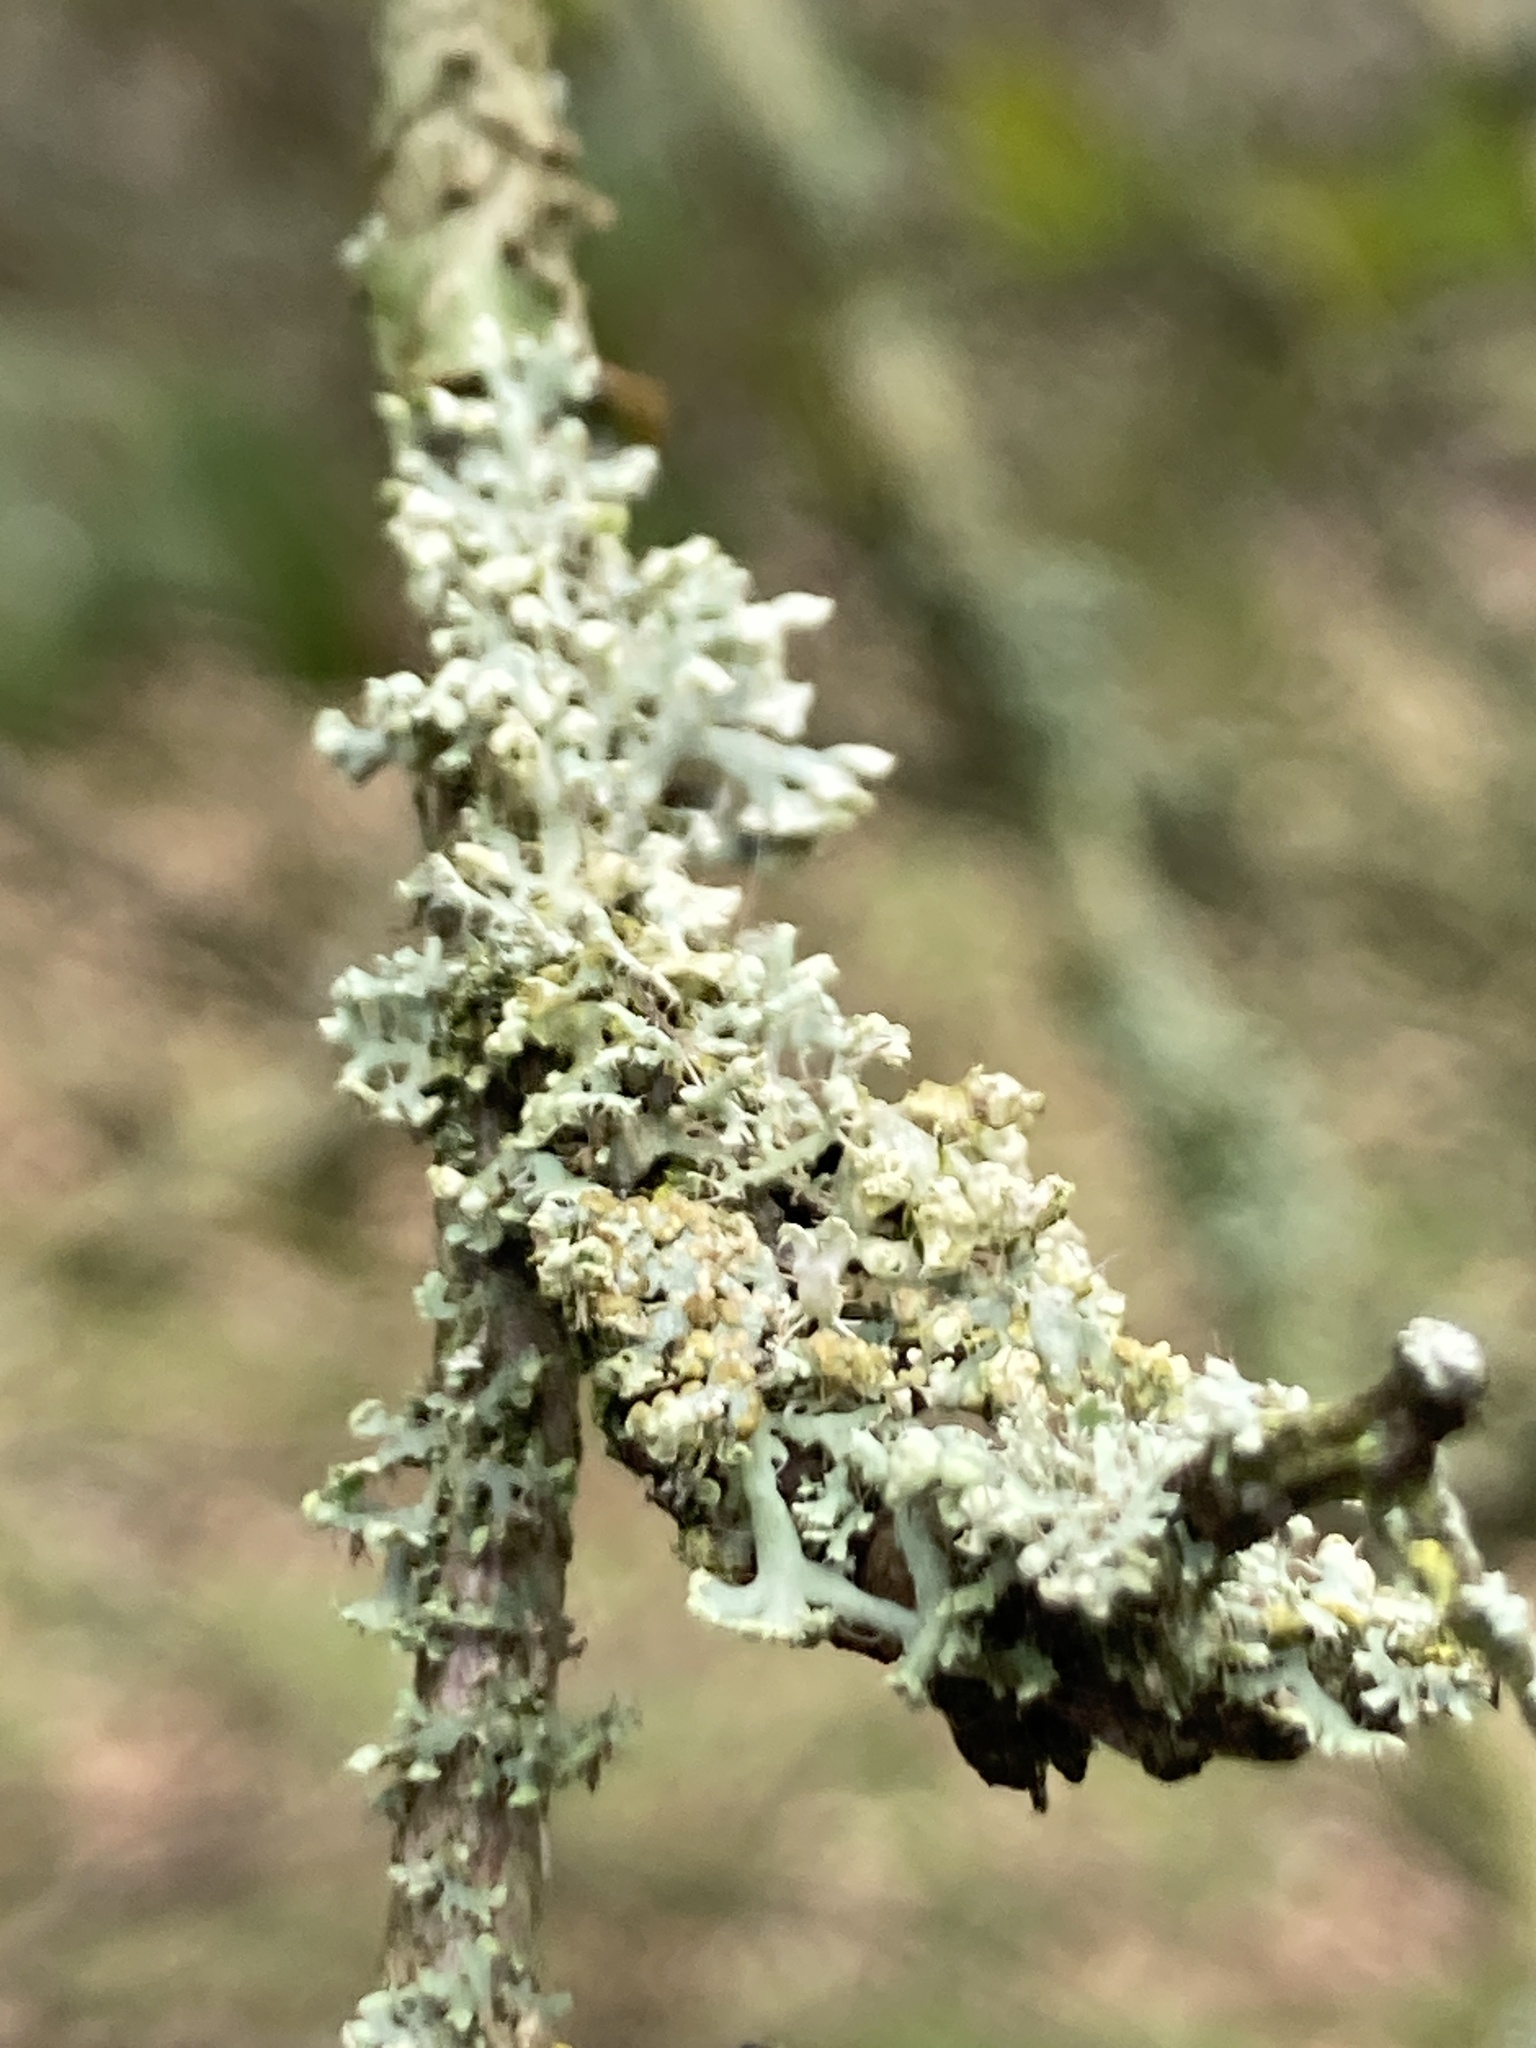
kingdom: Fungi
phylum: Ascomycota
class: Lecanoromycetes
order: Caliciales
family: Physciaceae
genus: Physcia
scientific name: Physcia tenella
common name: Fringed rosette lichen
